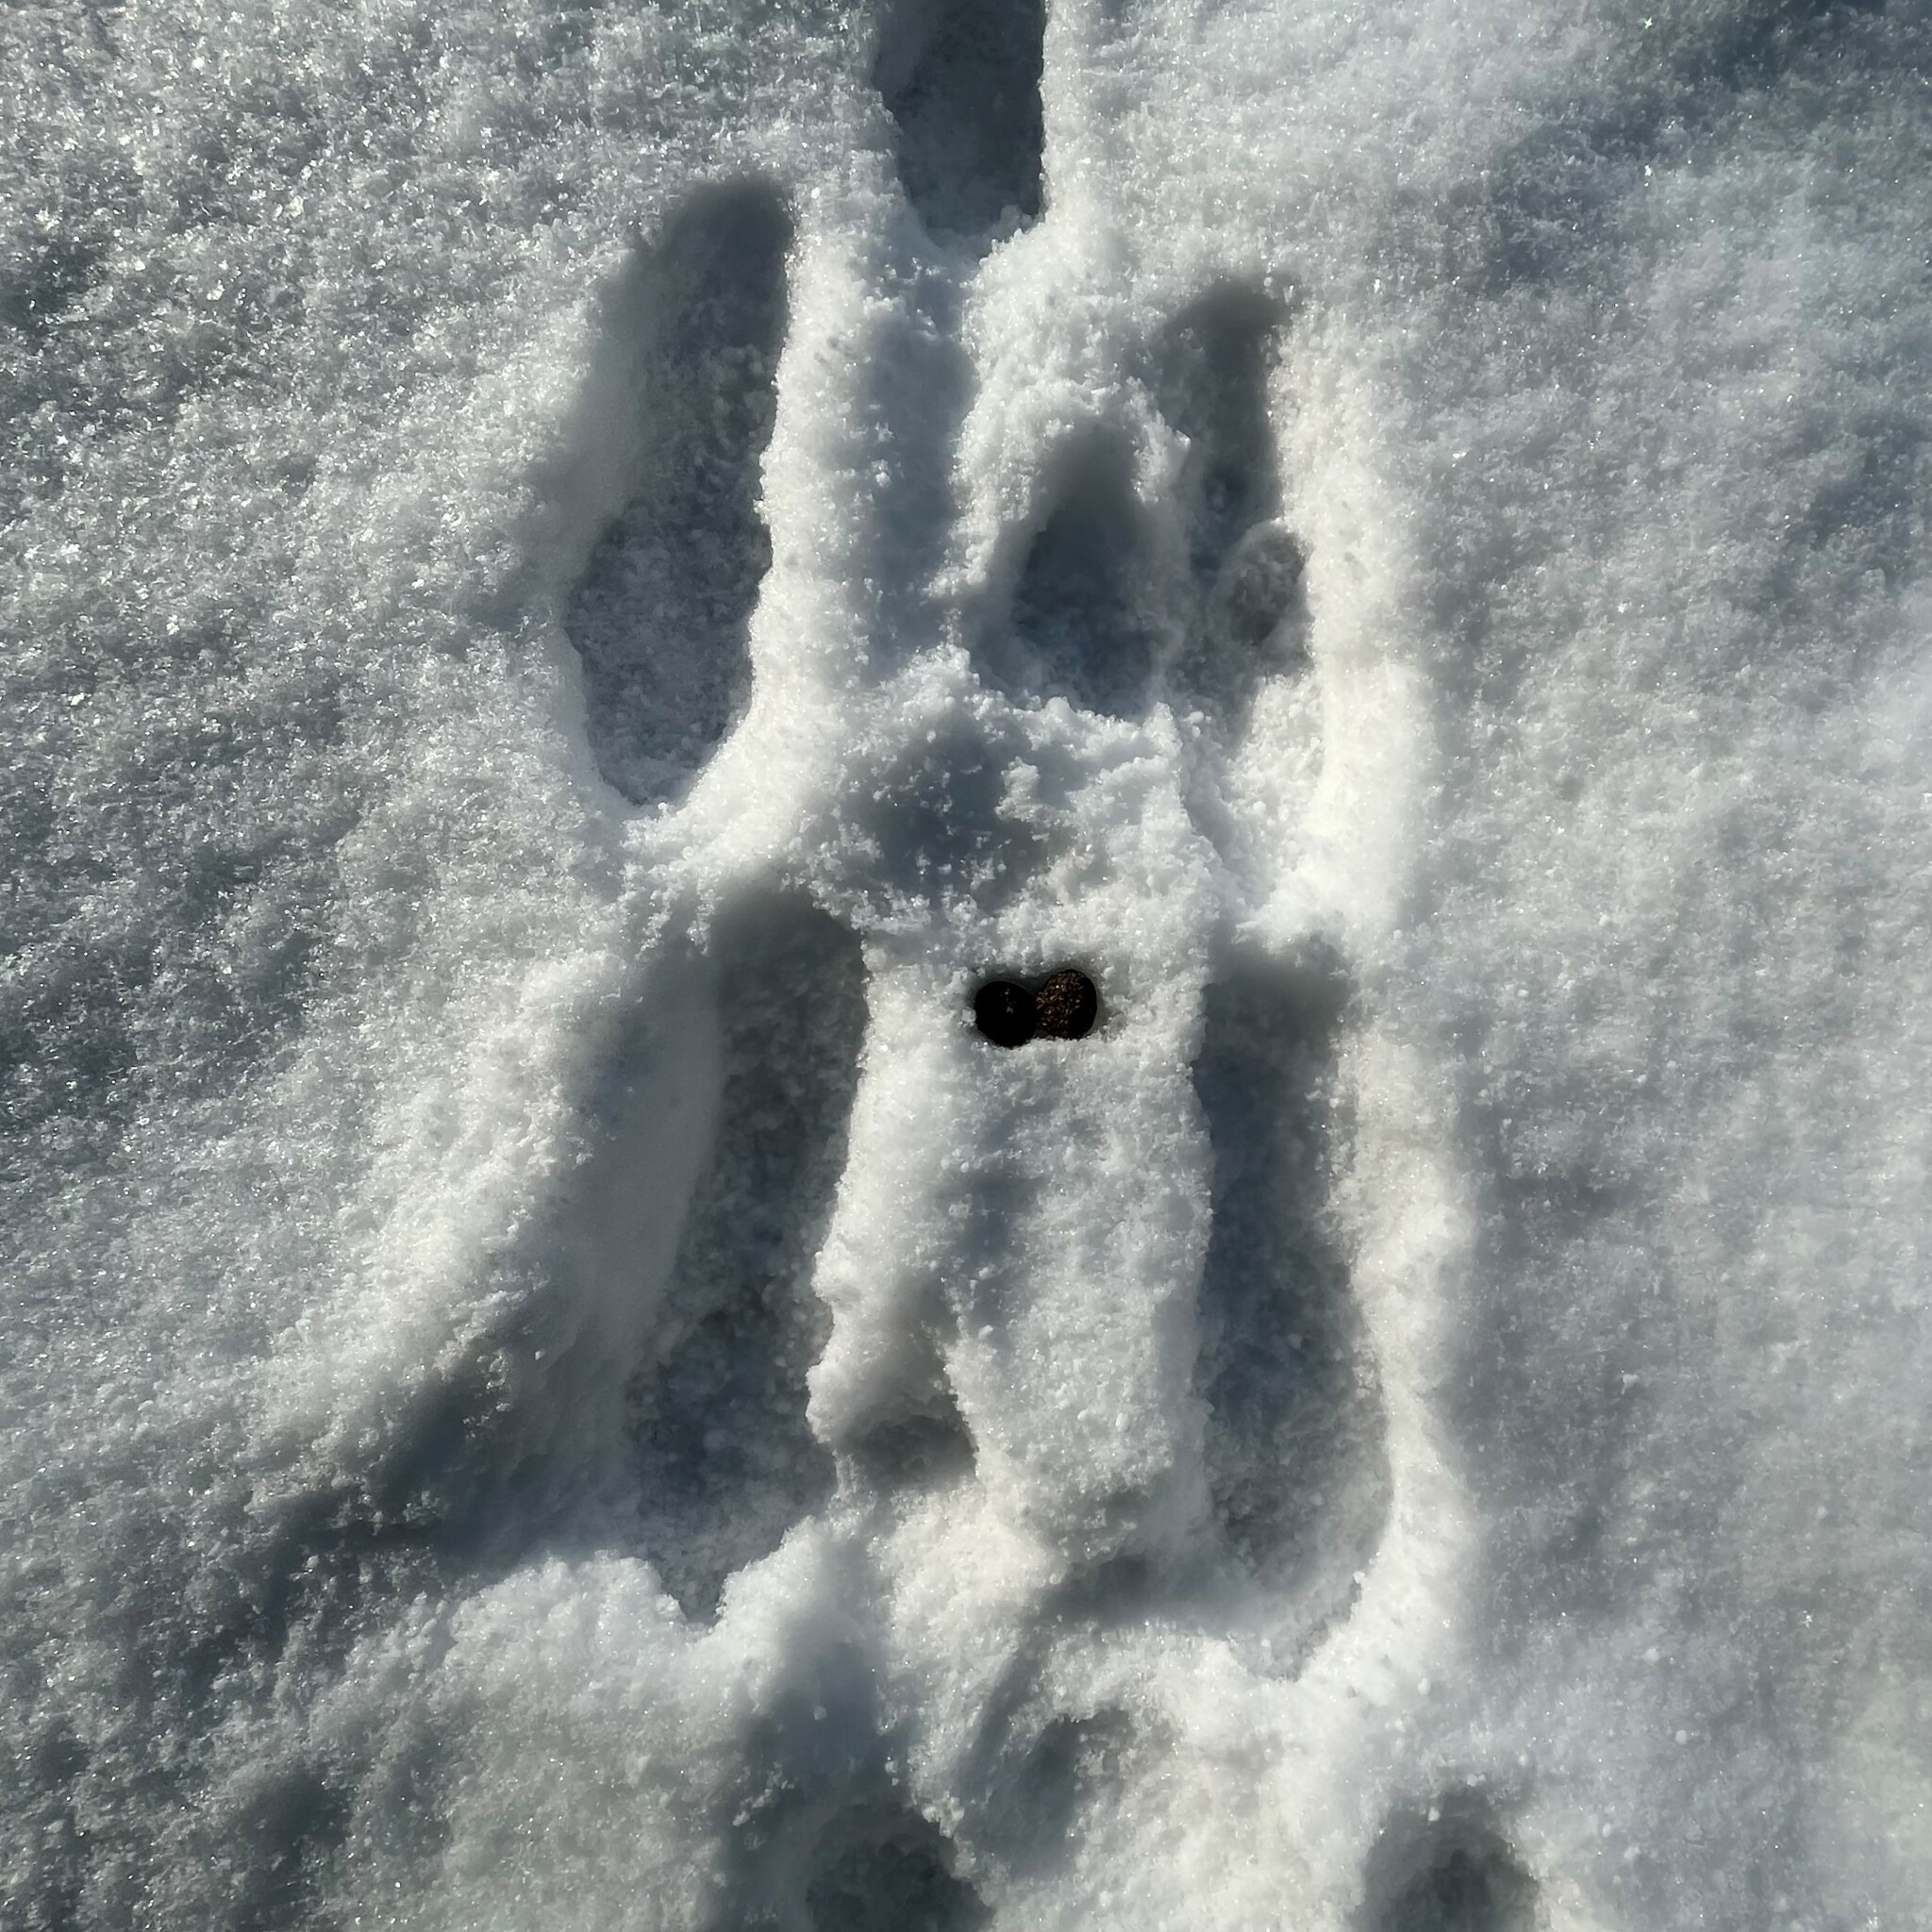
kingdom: Animalia
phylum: Chordata
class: Mammalia
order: Lagomorpha
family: Leporidae
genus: Lepus
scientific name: Lepus europaeus
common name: European hare
